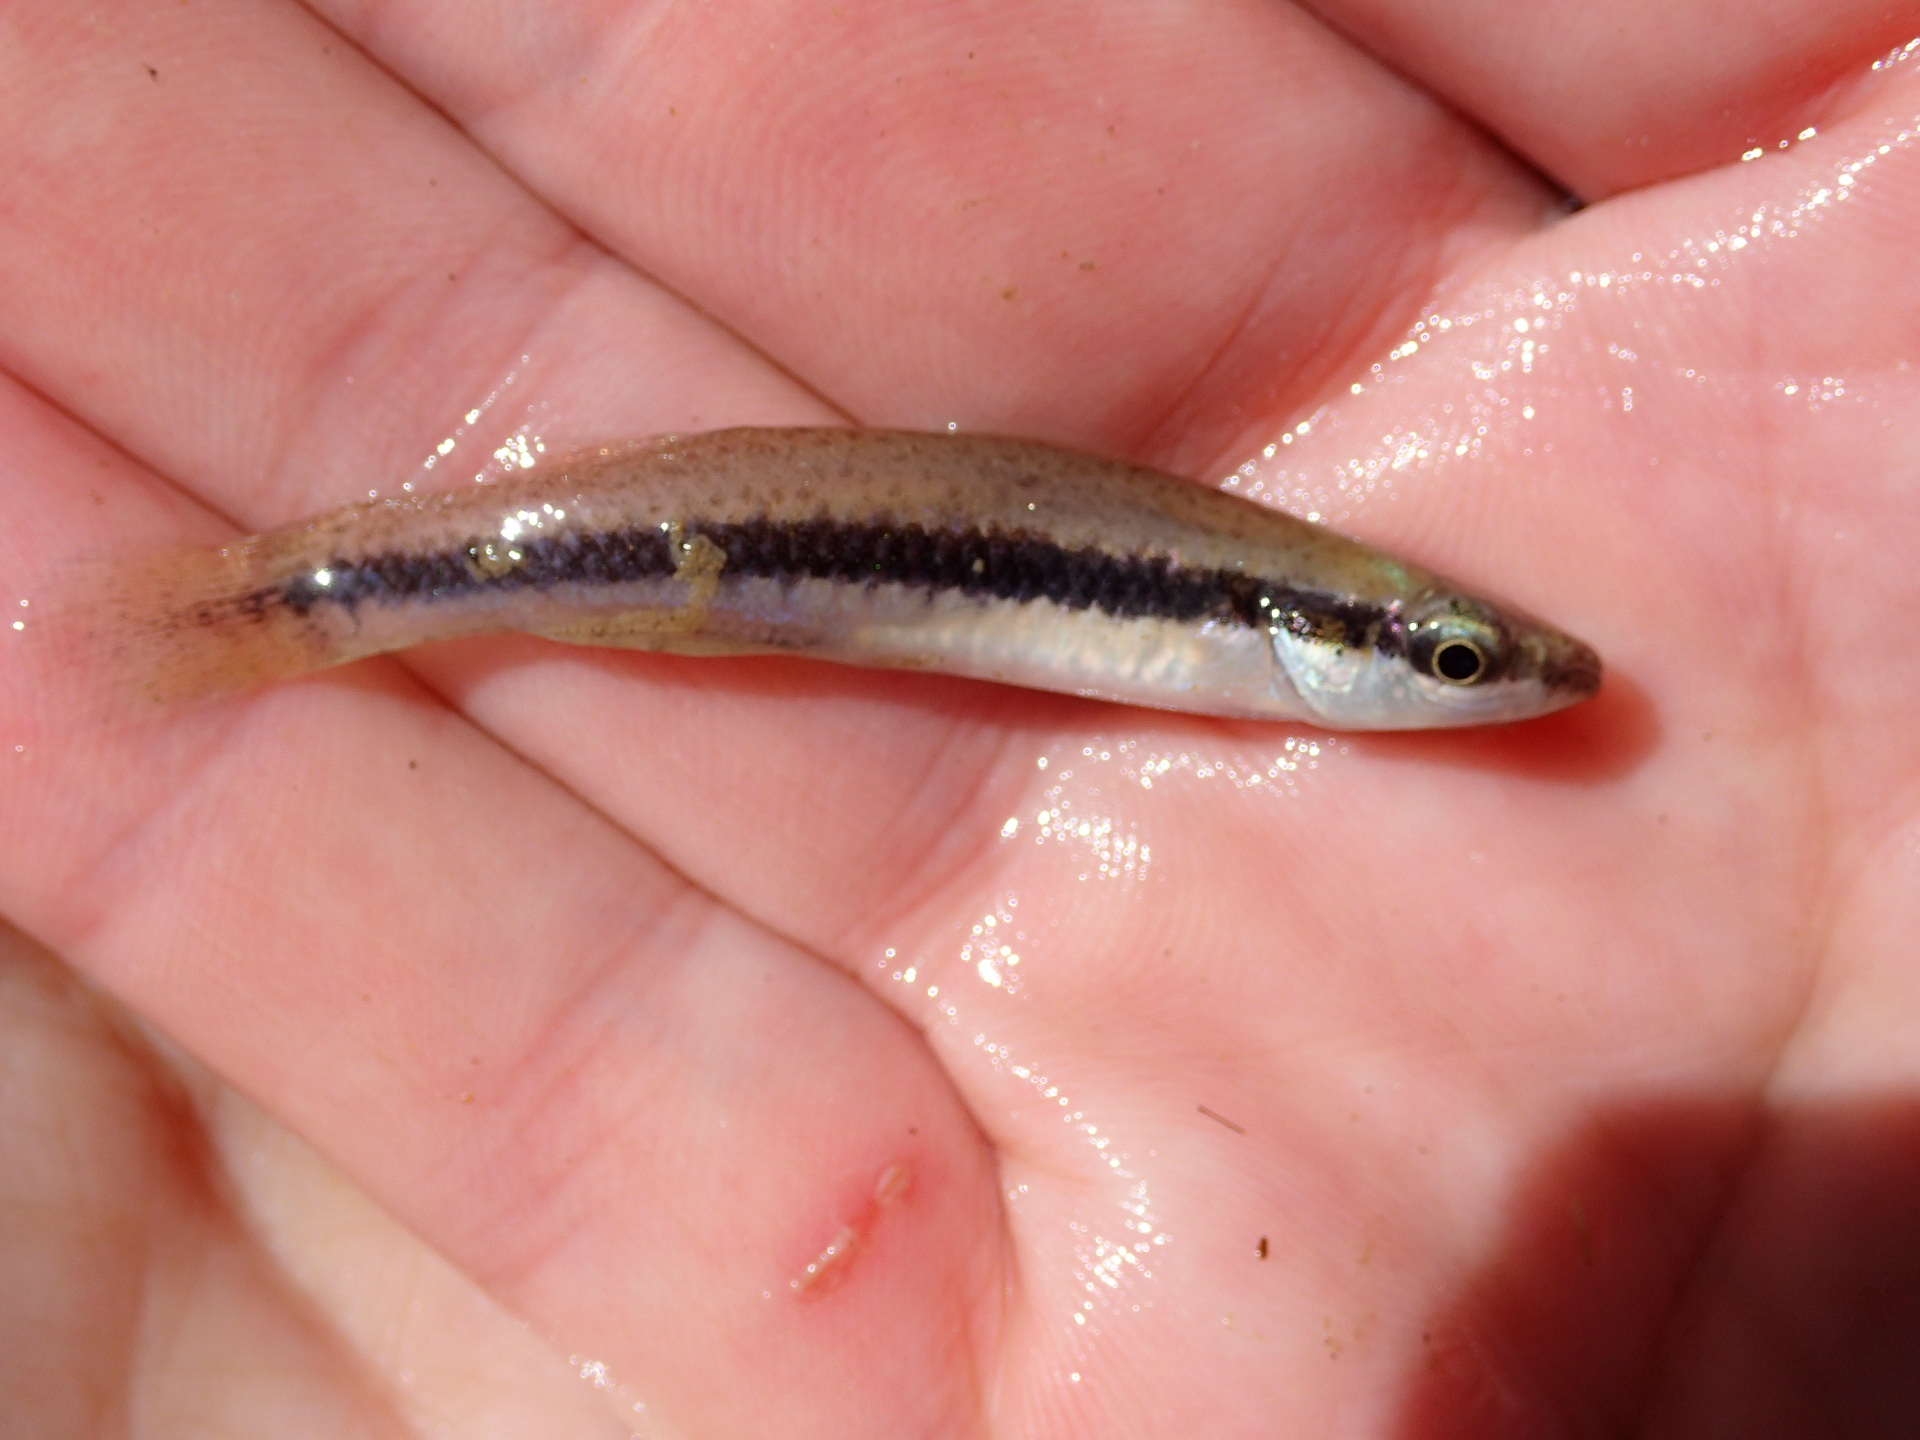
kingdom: Animalia
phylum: Chordata
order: Cyprinodontiformes
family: Fundulidae
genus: Fundulus
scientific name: Fundulus notatus
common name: Blackstripe topminnow
